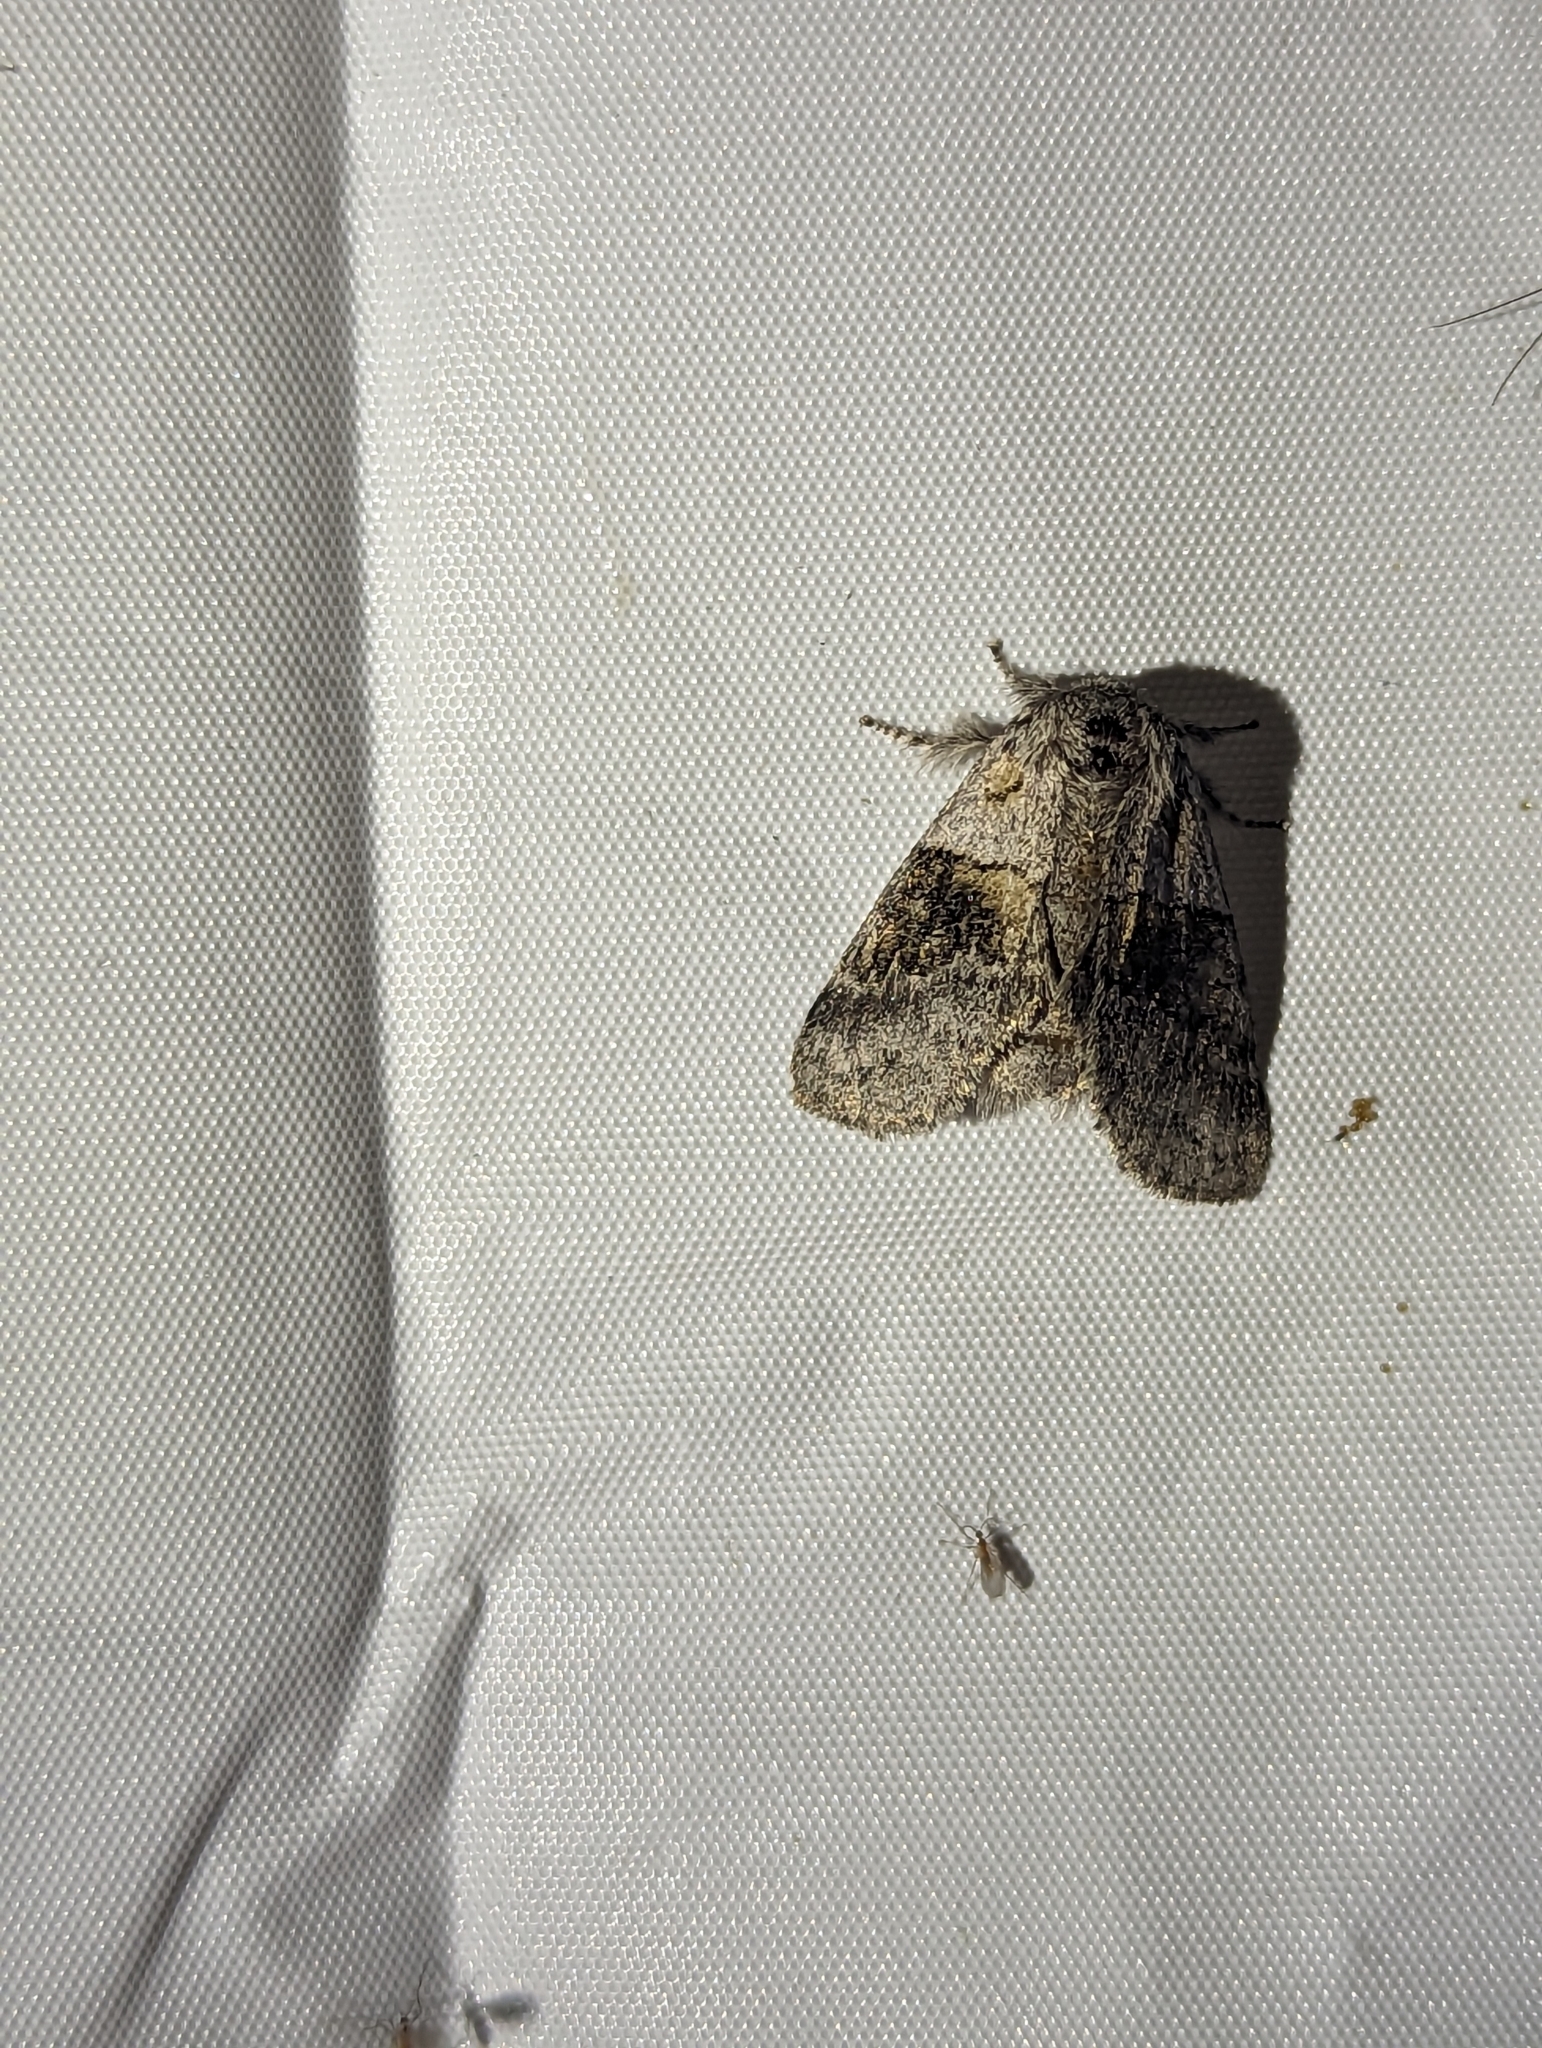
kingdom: Animalia
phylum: Arthropoda
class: Insecta
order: Lepidoptera
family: Notodontidae
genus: Gluphisia
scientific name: Gluphisia septentrionis
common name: Common gluphisia
